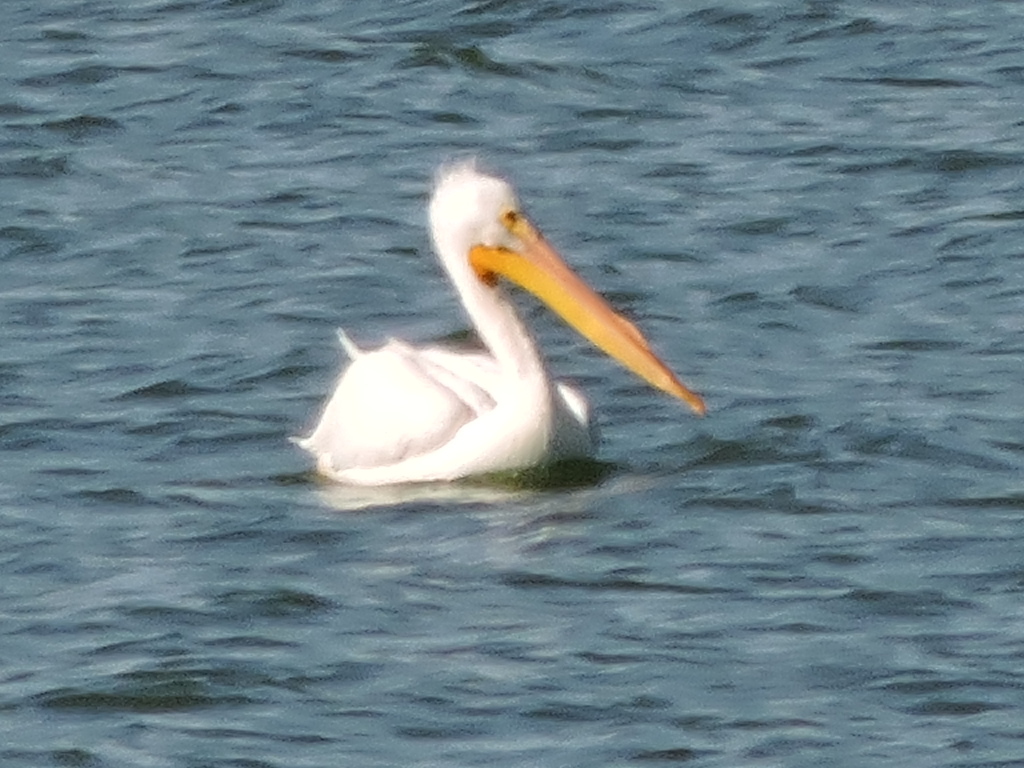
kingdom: Animalia
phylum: Chordata
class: Aves
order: Pelecaniformes
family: Pelecanidae
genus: Pelecanus
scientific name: Pelecanus erythrorhynchos
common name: American white pelican
